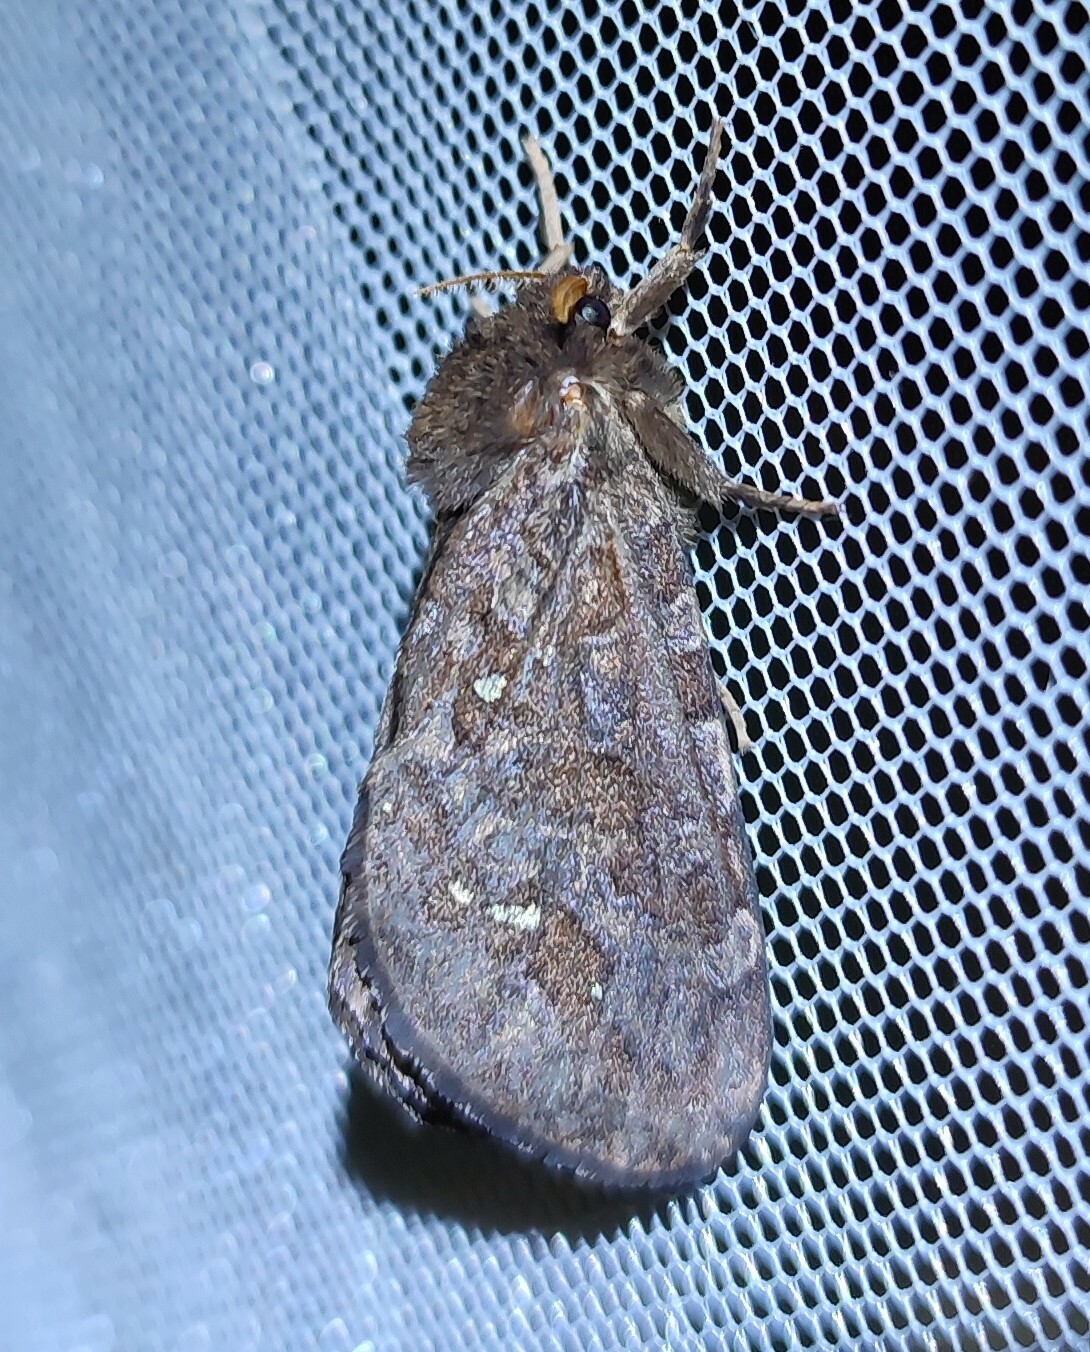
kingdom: Animalia
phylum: Arthropoda
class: Insecta
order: Lepidoptera
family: Hepialidae
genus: Metahepialus
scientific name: Metahepialus plurimaculata
